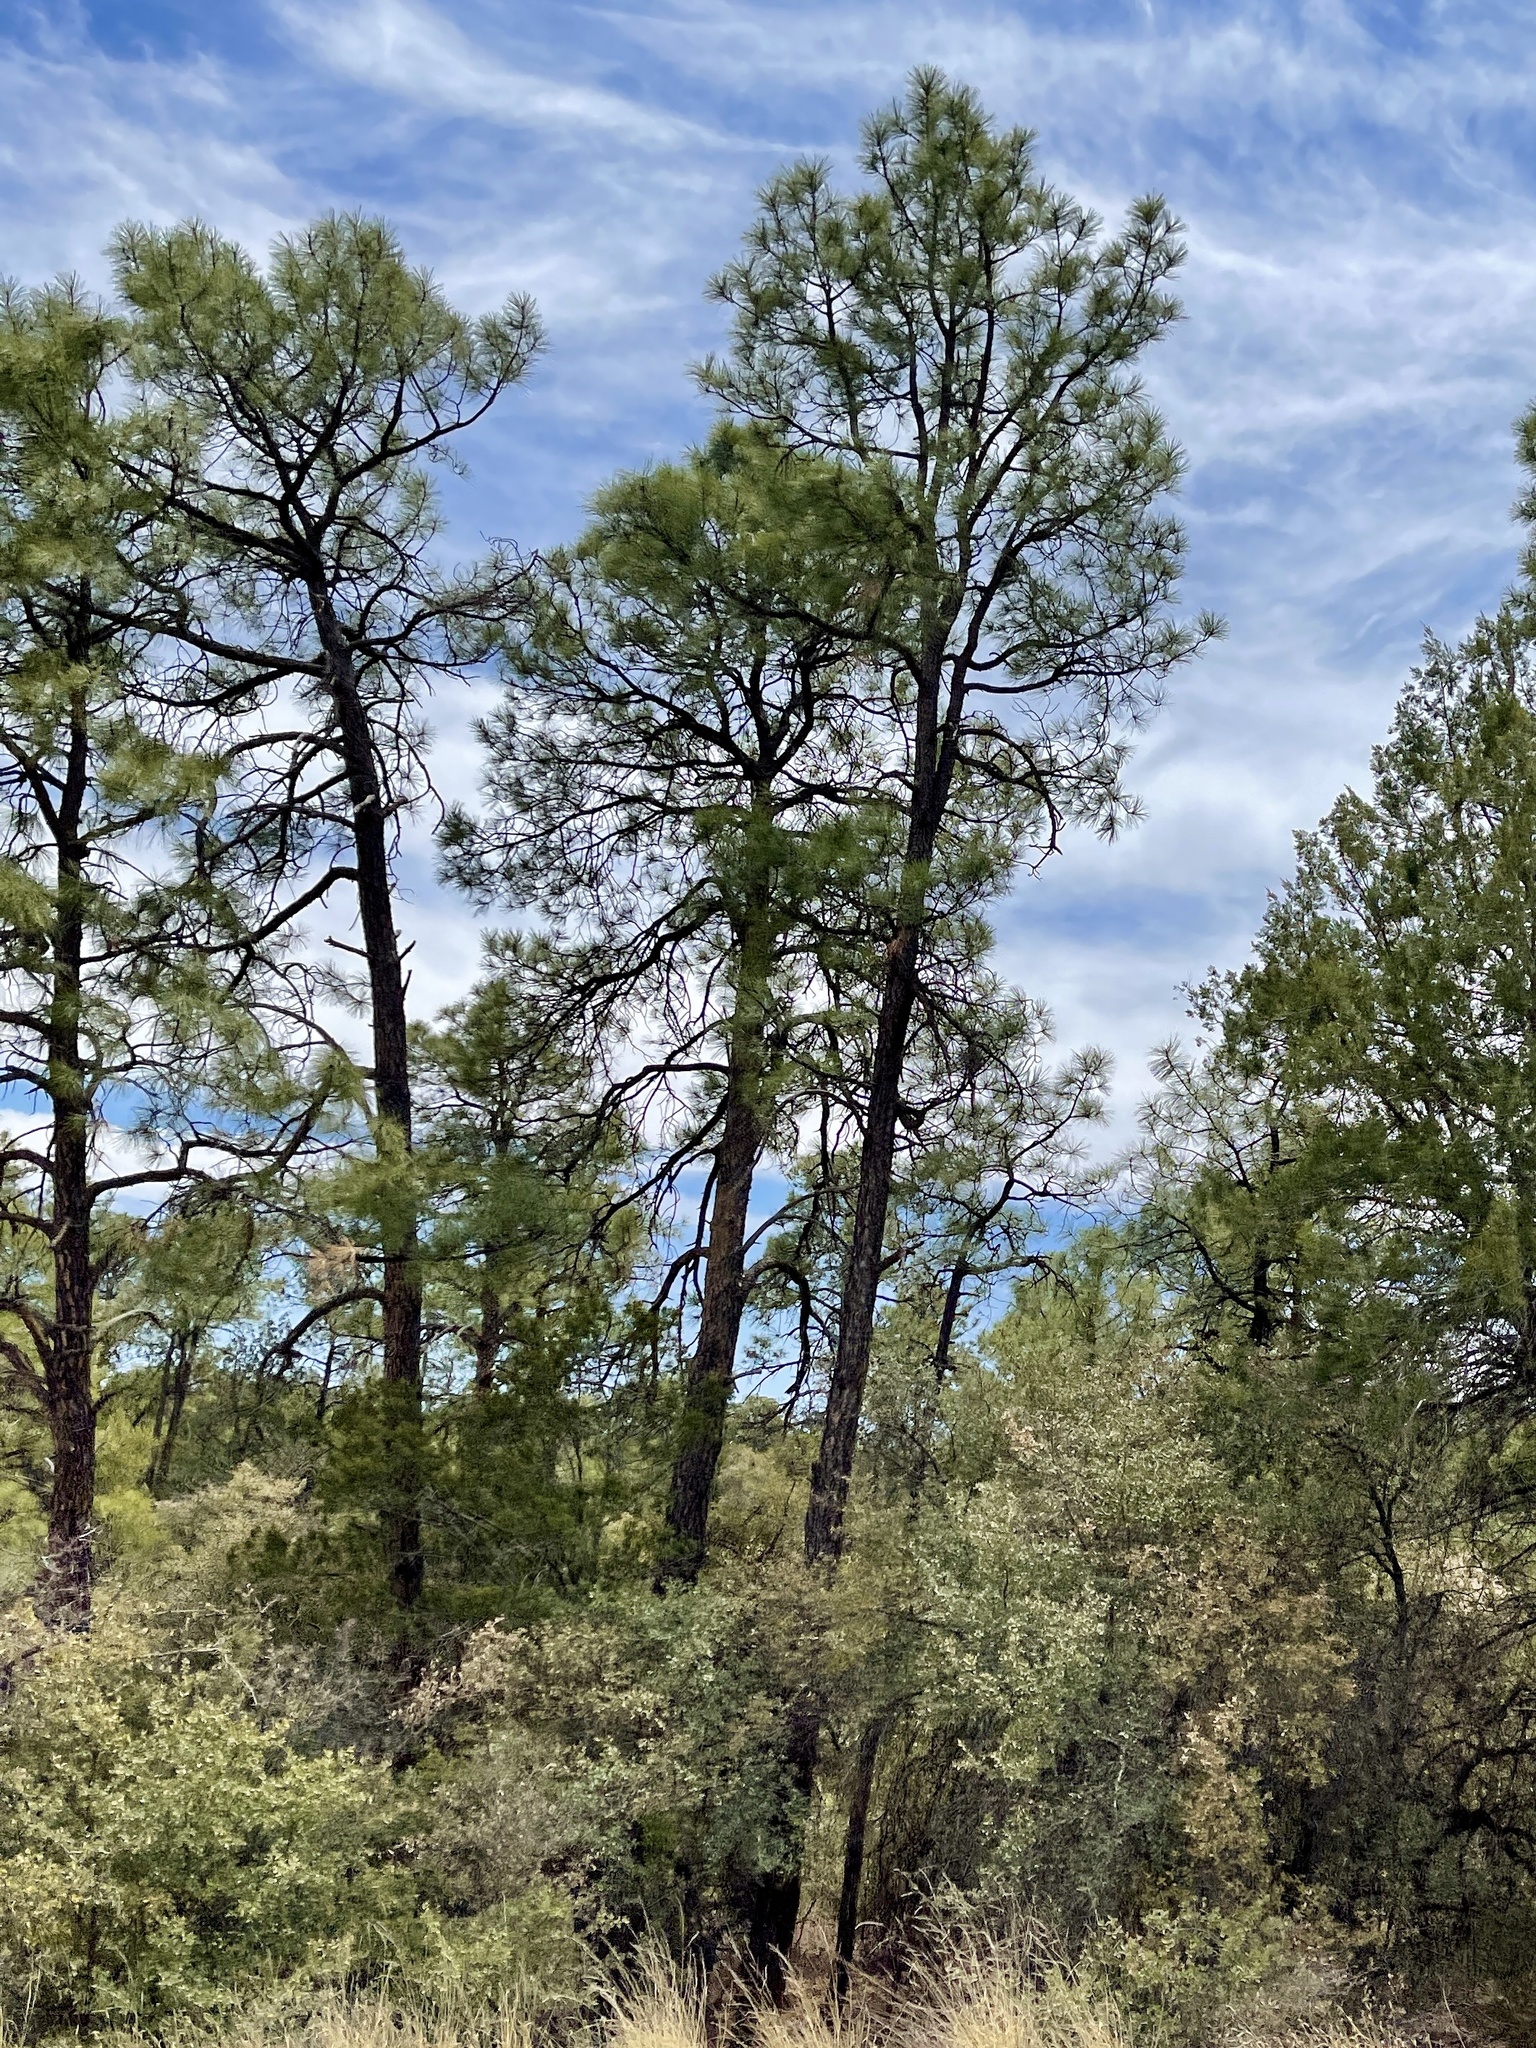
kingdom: Plantae
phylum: Tracheophyta
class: Pinopsida
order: Pinales
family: Pinaceae
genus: Pinus
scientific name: Pinus ponderosa
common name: Western yellow-pine
